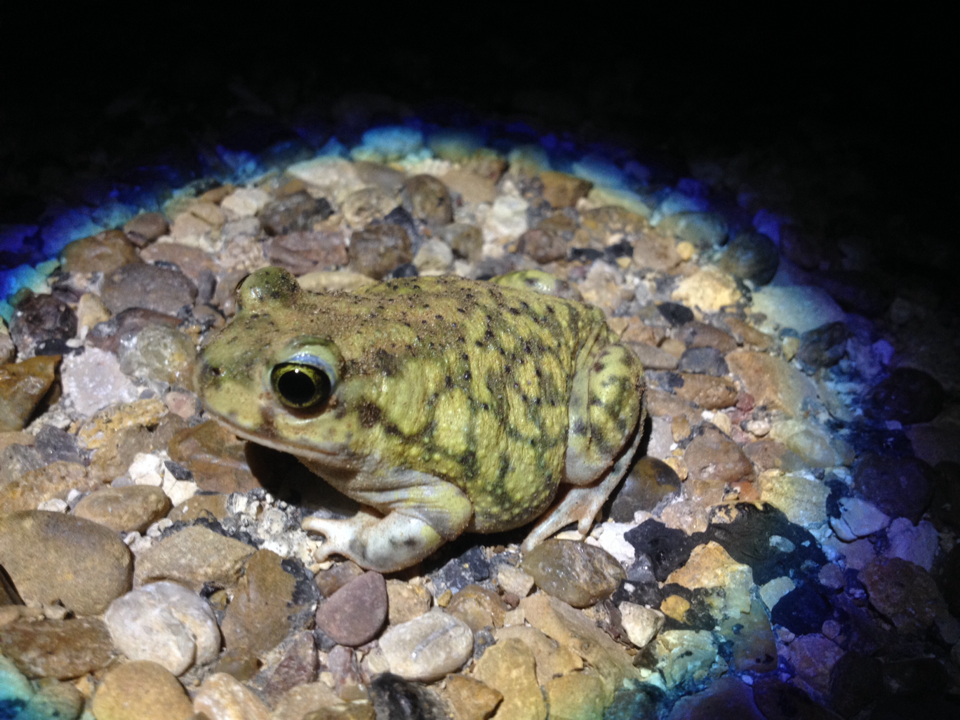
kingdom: Animalia
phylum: Chordata
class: Amphibia
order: Anura
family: Scaphiopodidae
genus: Scaphiopus
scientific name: Scaphiopus couchii
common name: Couch's spadefoot toad
